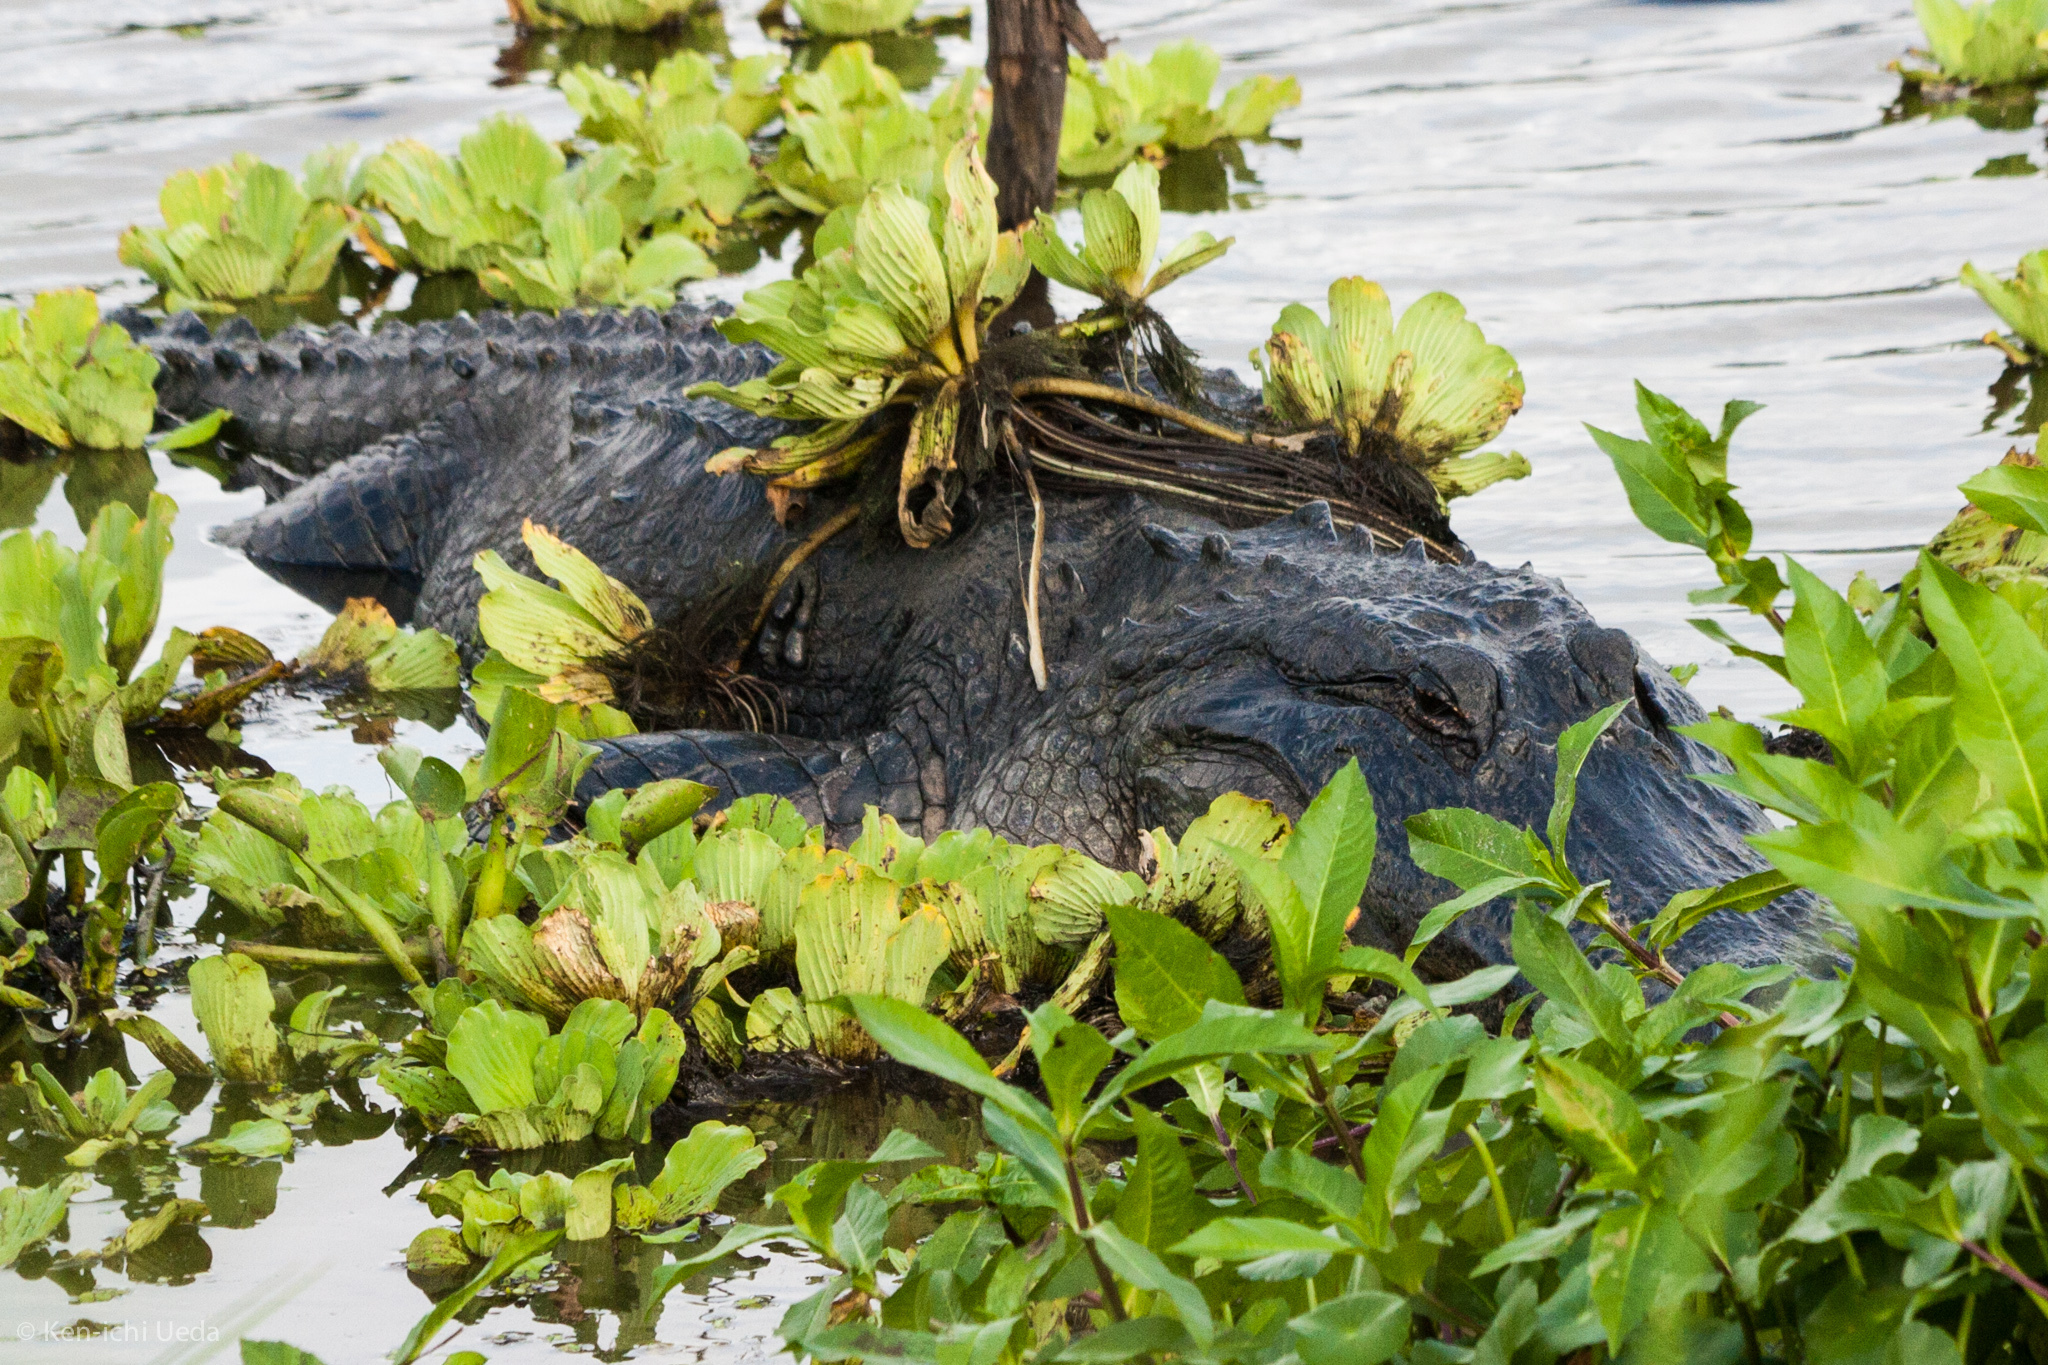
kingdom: Animalia
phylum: Chordata
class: Crocodylia
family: Alligatoridae
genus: Alligator
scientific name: Alligator mississippiensis
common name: American alligator
